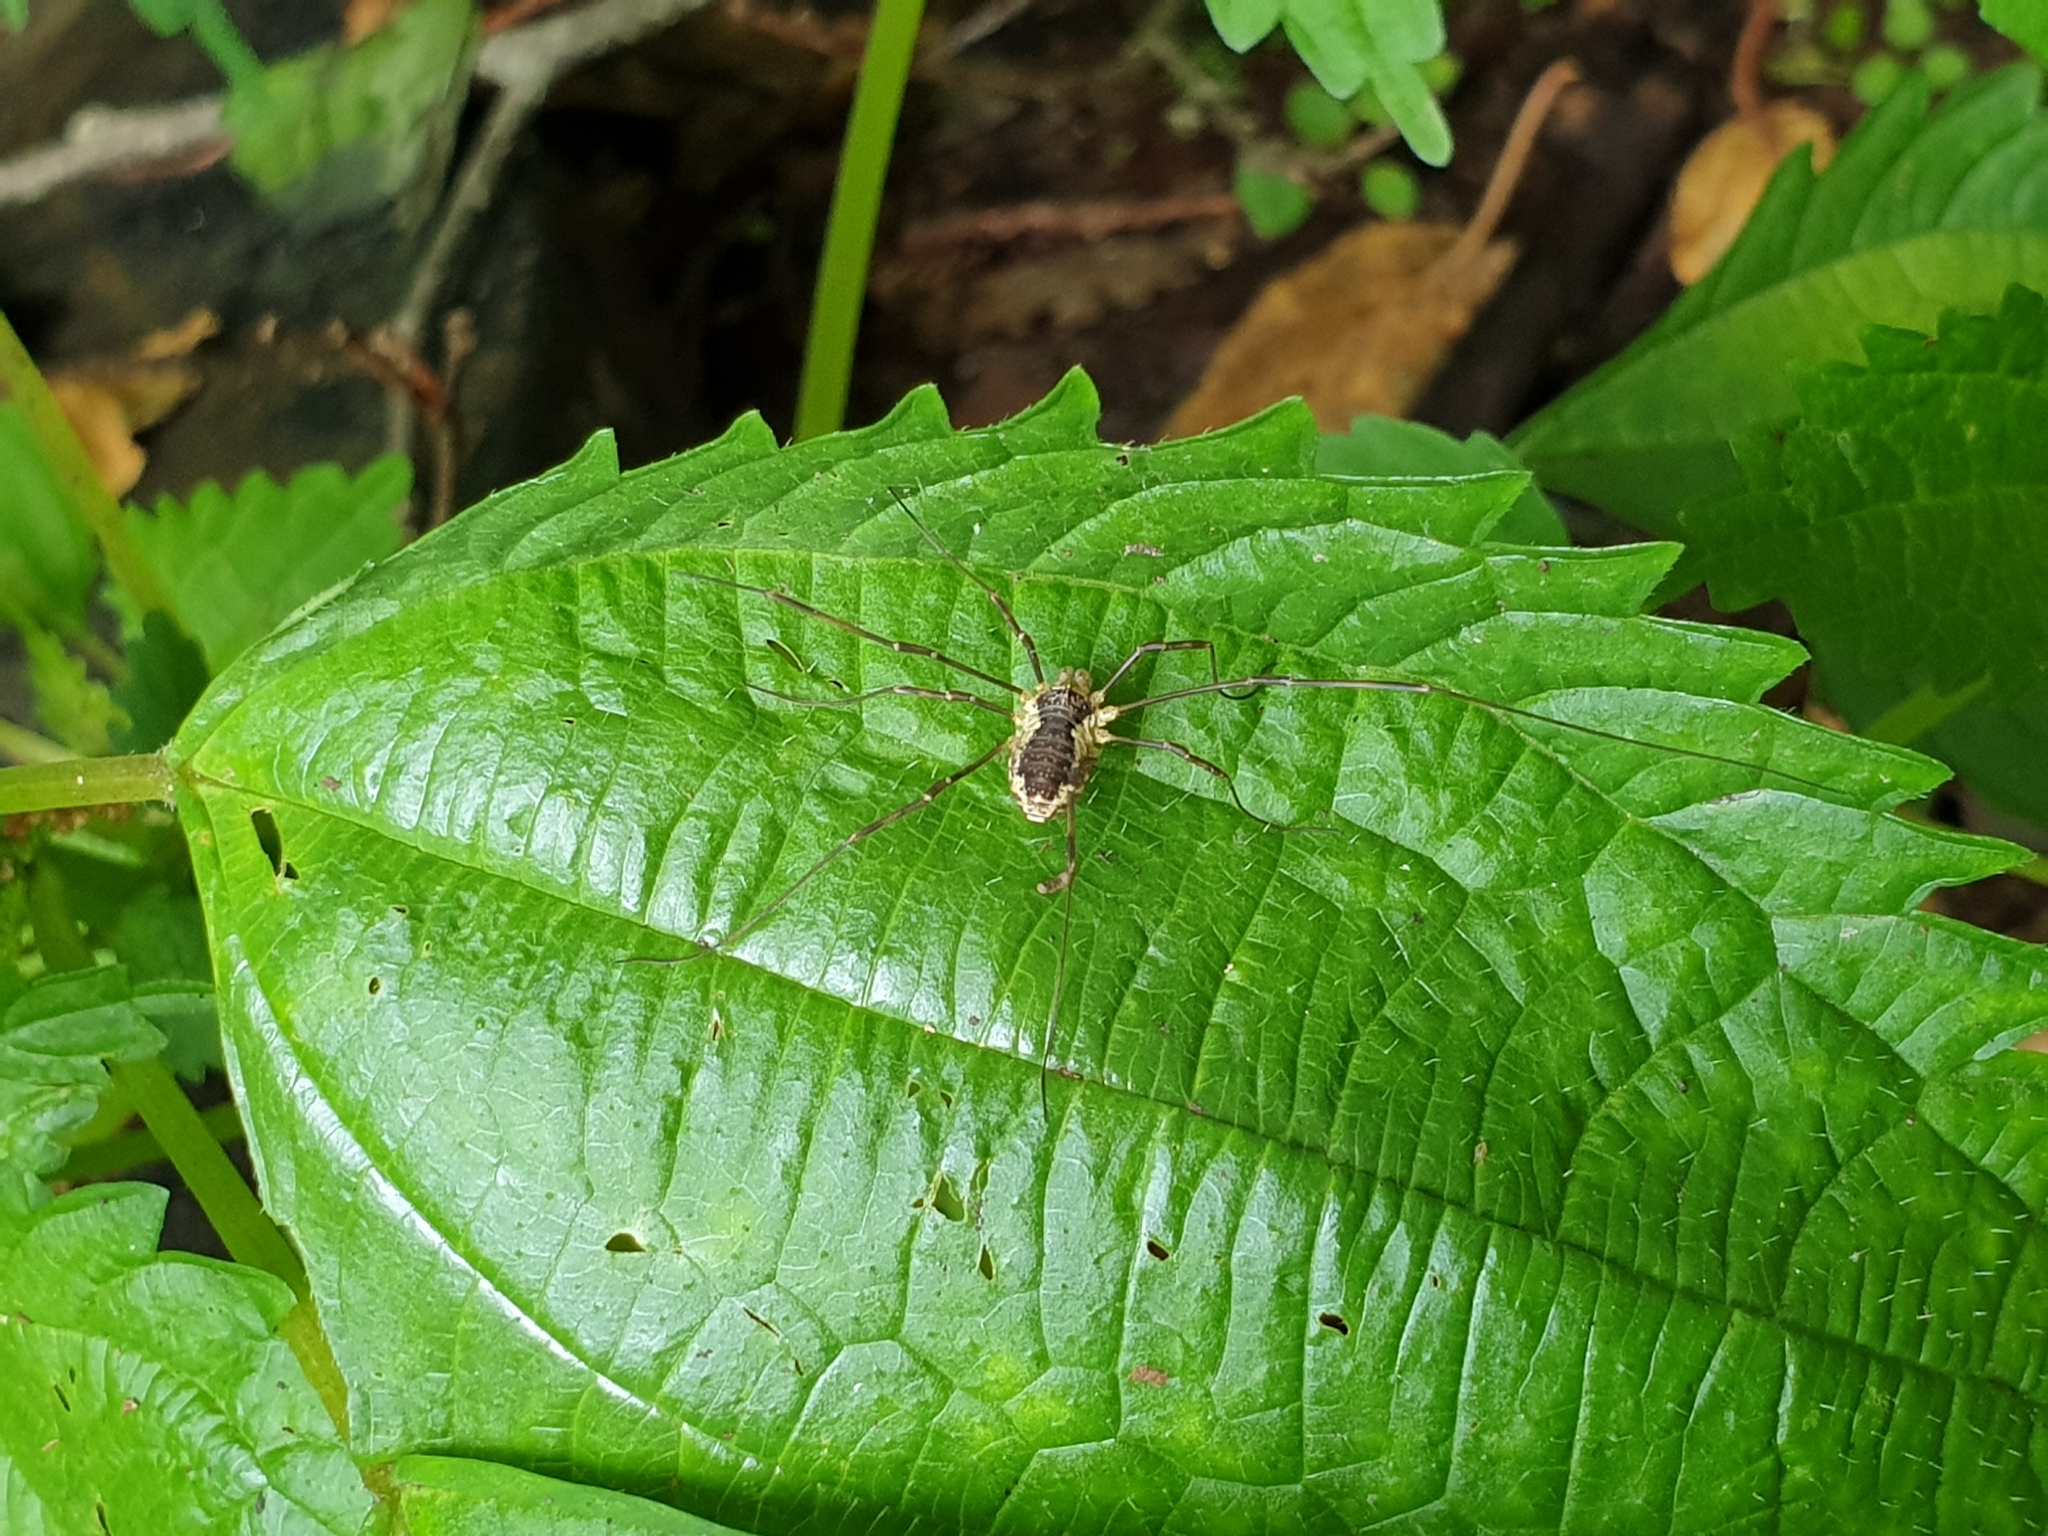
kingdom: Animalia
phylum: Arthropoda
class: Arachnida
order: Opiliones
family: Phalangiidae
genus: Odiellus
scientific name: Odiellus aspersus
